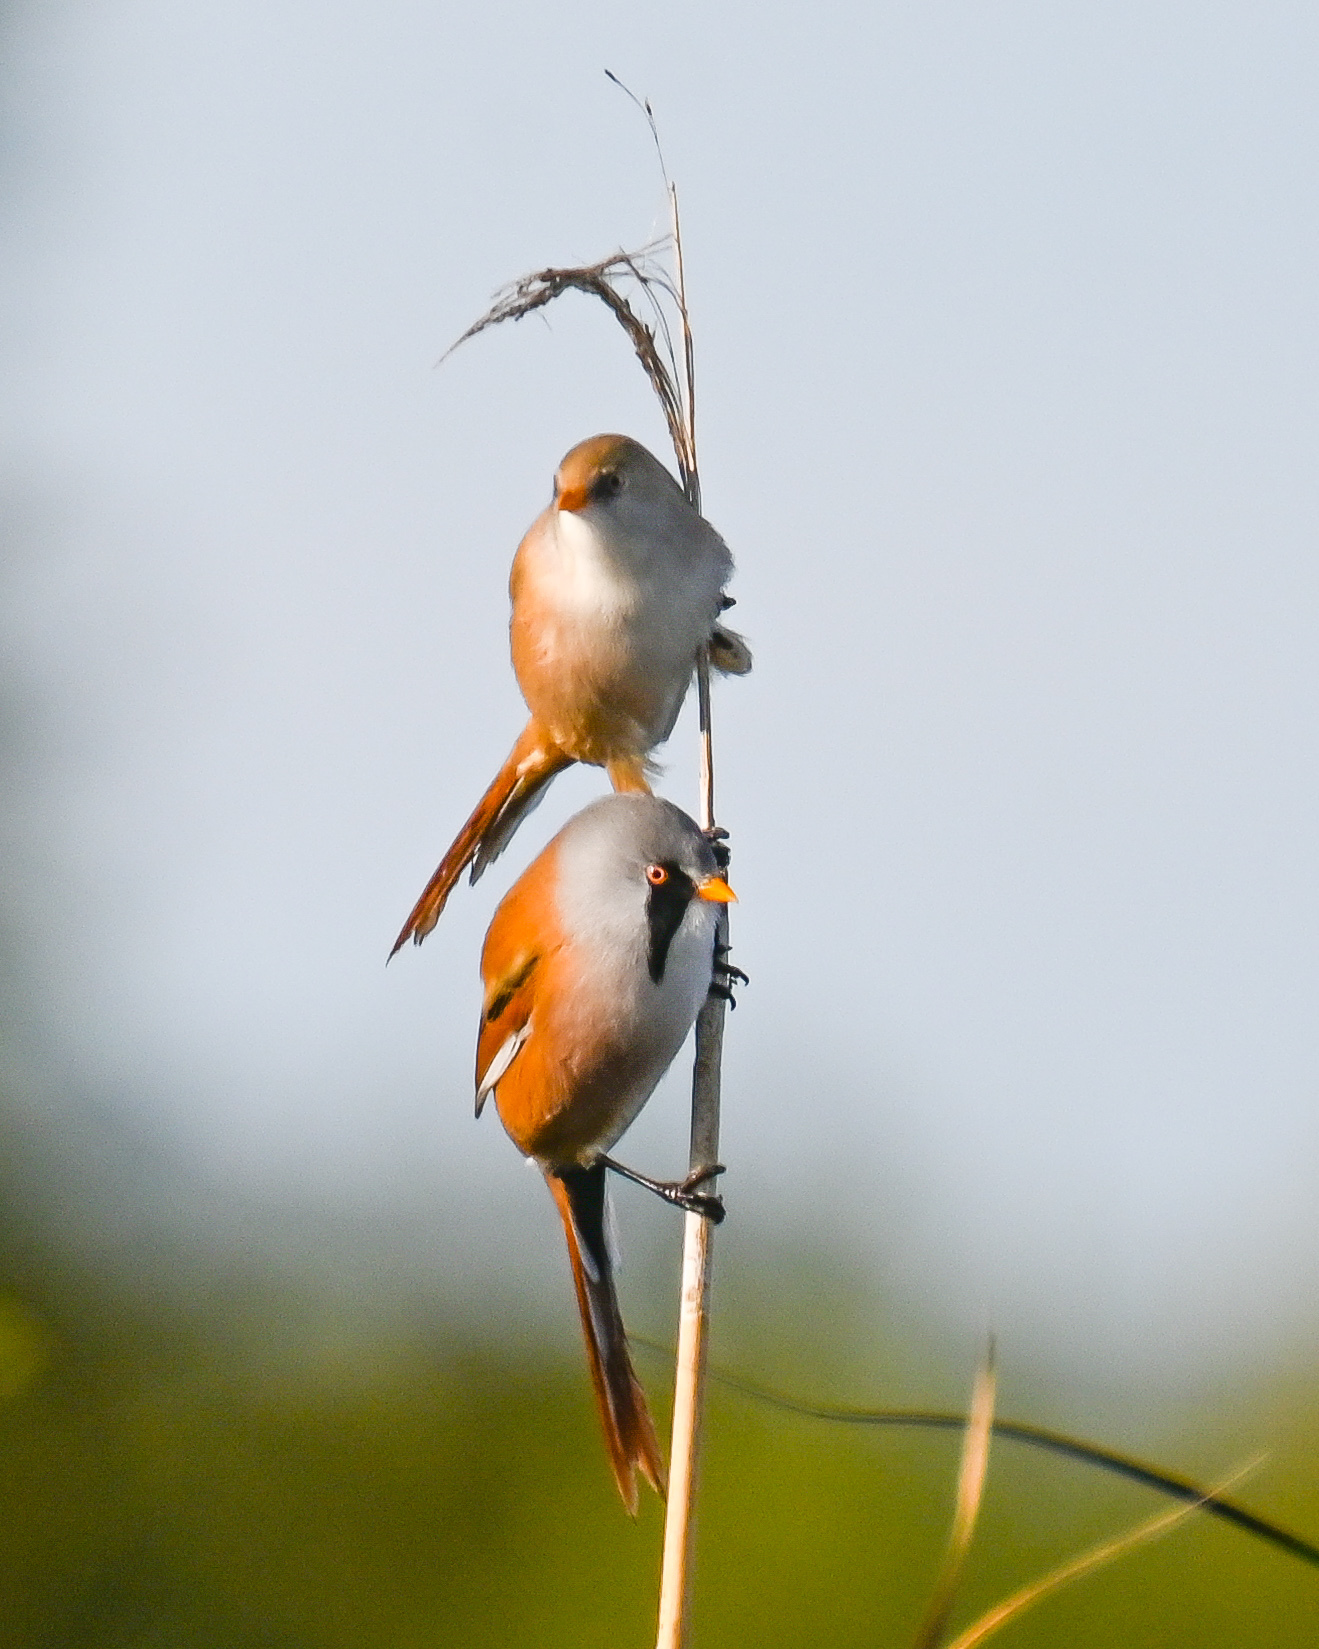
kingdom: Animalia
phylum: Chordata
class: Aves
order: Passeriformes
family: Panuridae
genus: Panurus
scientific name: Panurus biarmicus
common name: Bearded reedling
